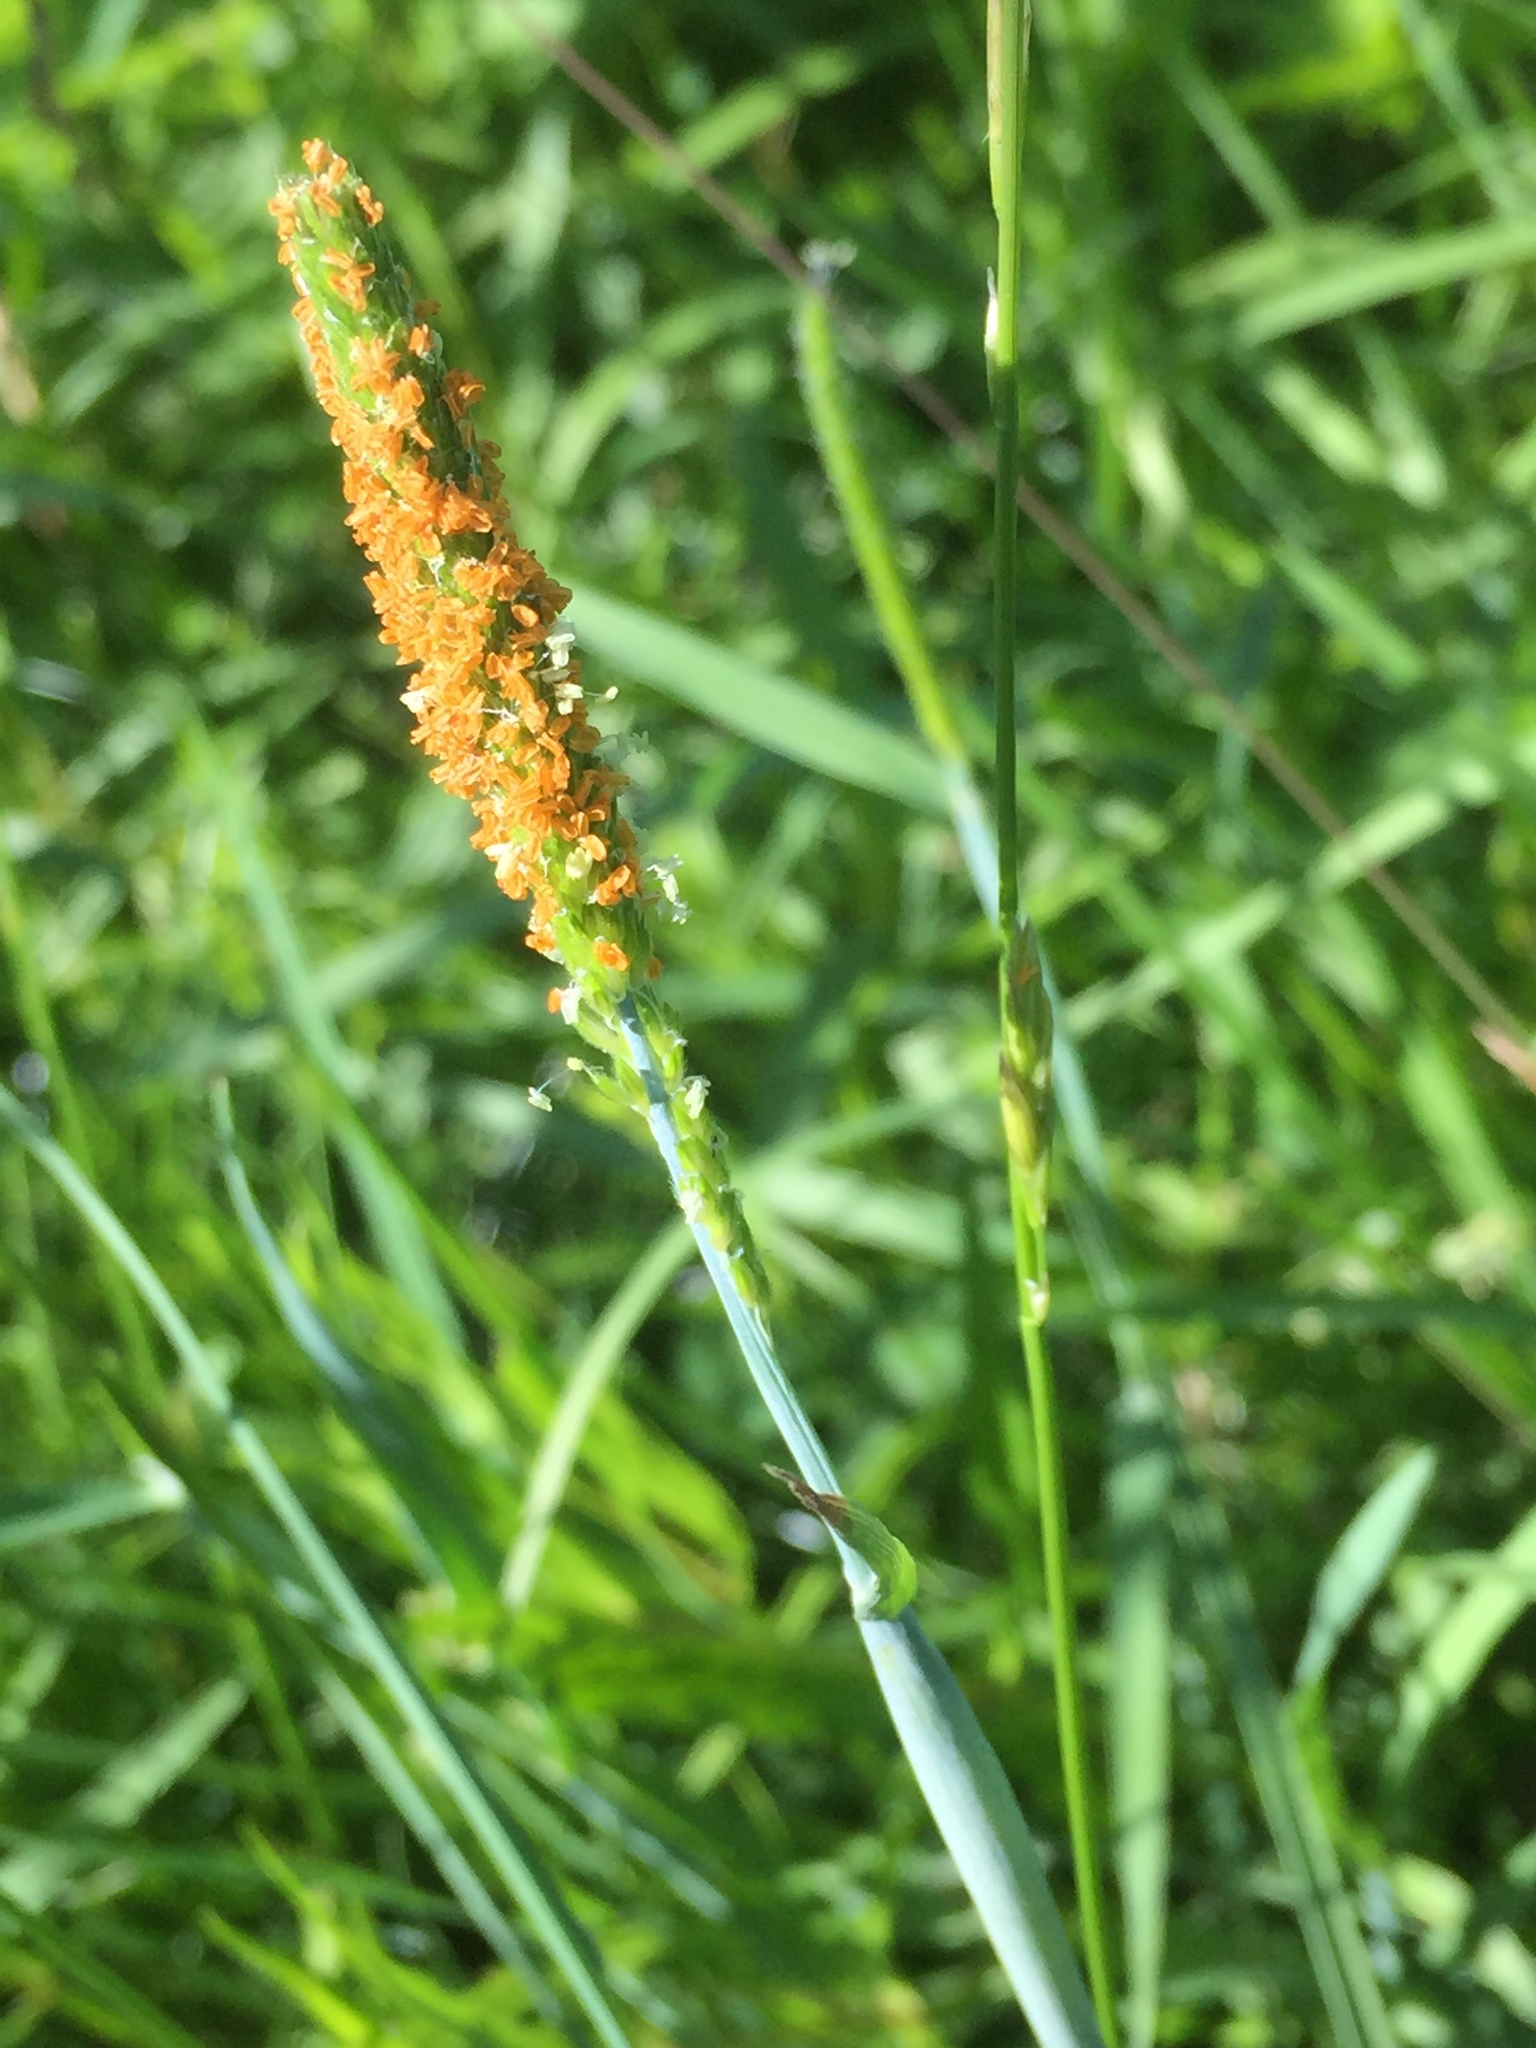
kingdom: Plantae
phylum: Tracheophyta
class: Liliopsida
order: Poales
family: Poaceae
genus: Alopecurus
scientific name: Alopecurus geniculatus
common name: Water foxtail
